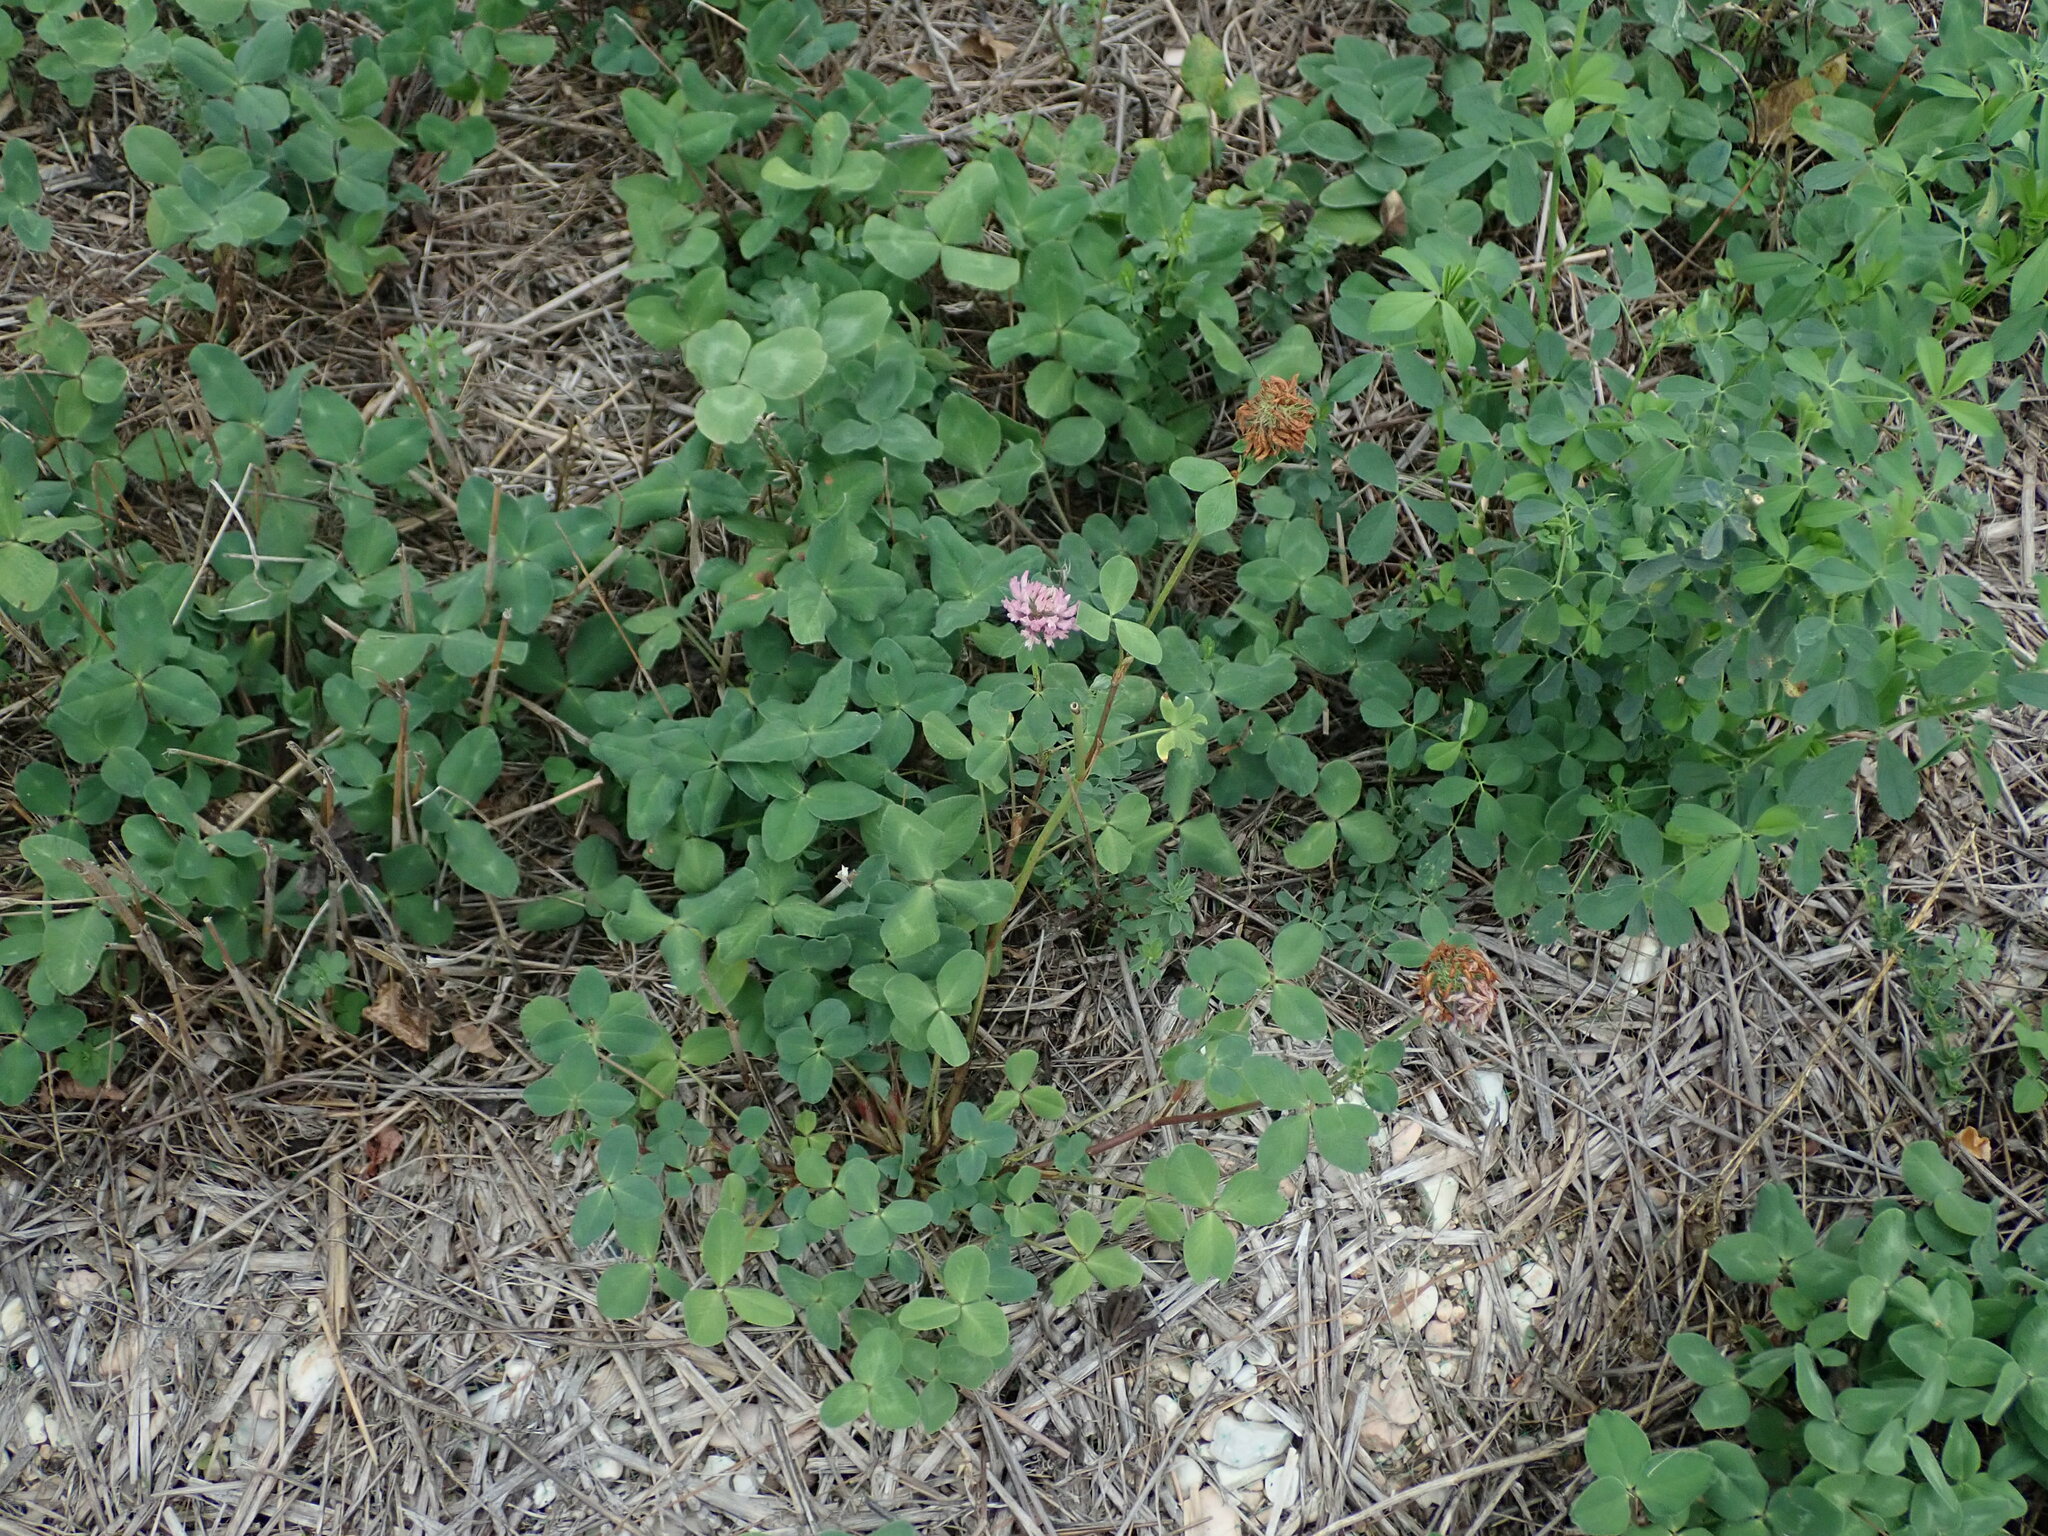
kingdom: Plantae
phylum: Tracheophyta
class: Magnoliopsida
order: Fabales
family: Fabaceae
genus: Trifolium
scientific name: Trifolium pratense
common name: Red clover
